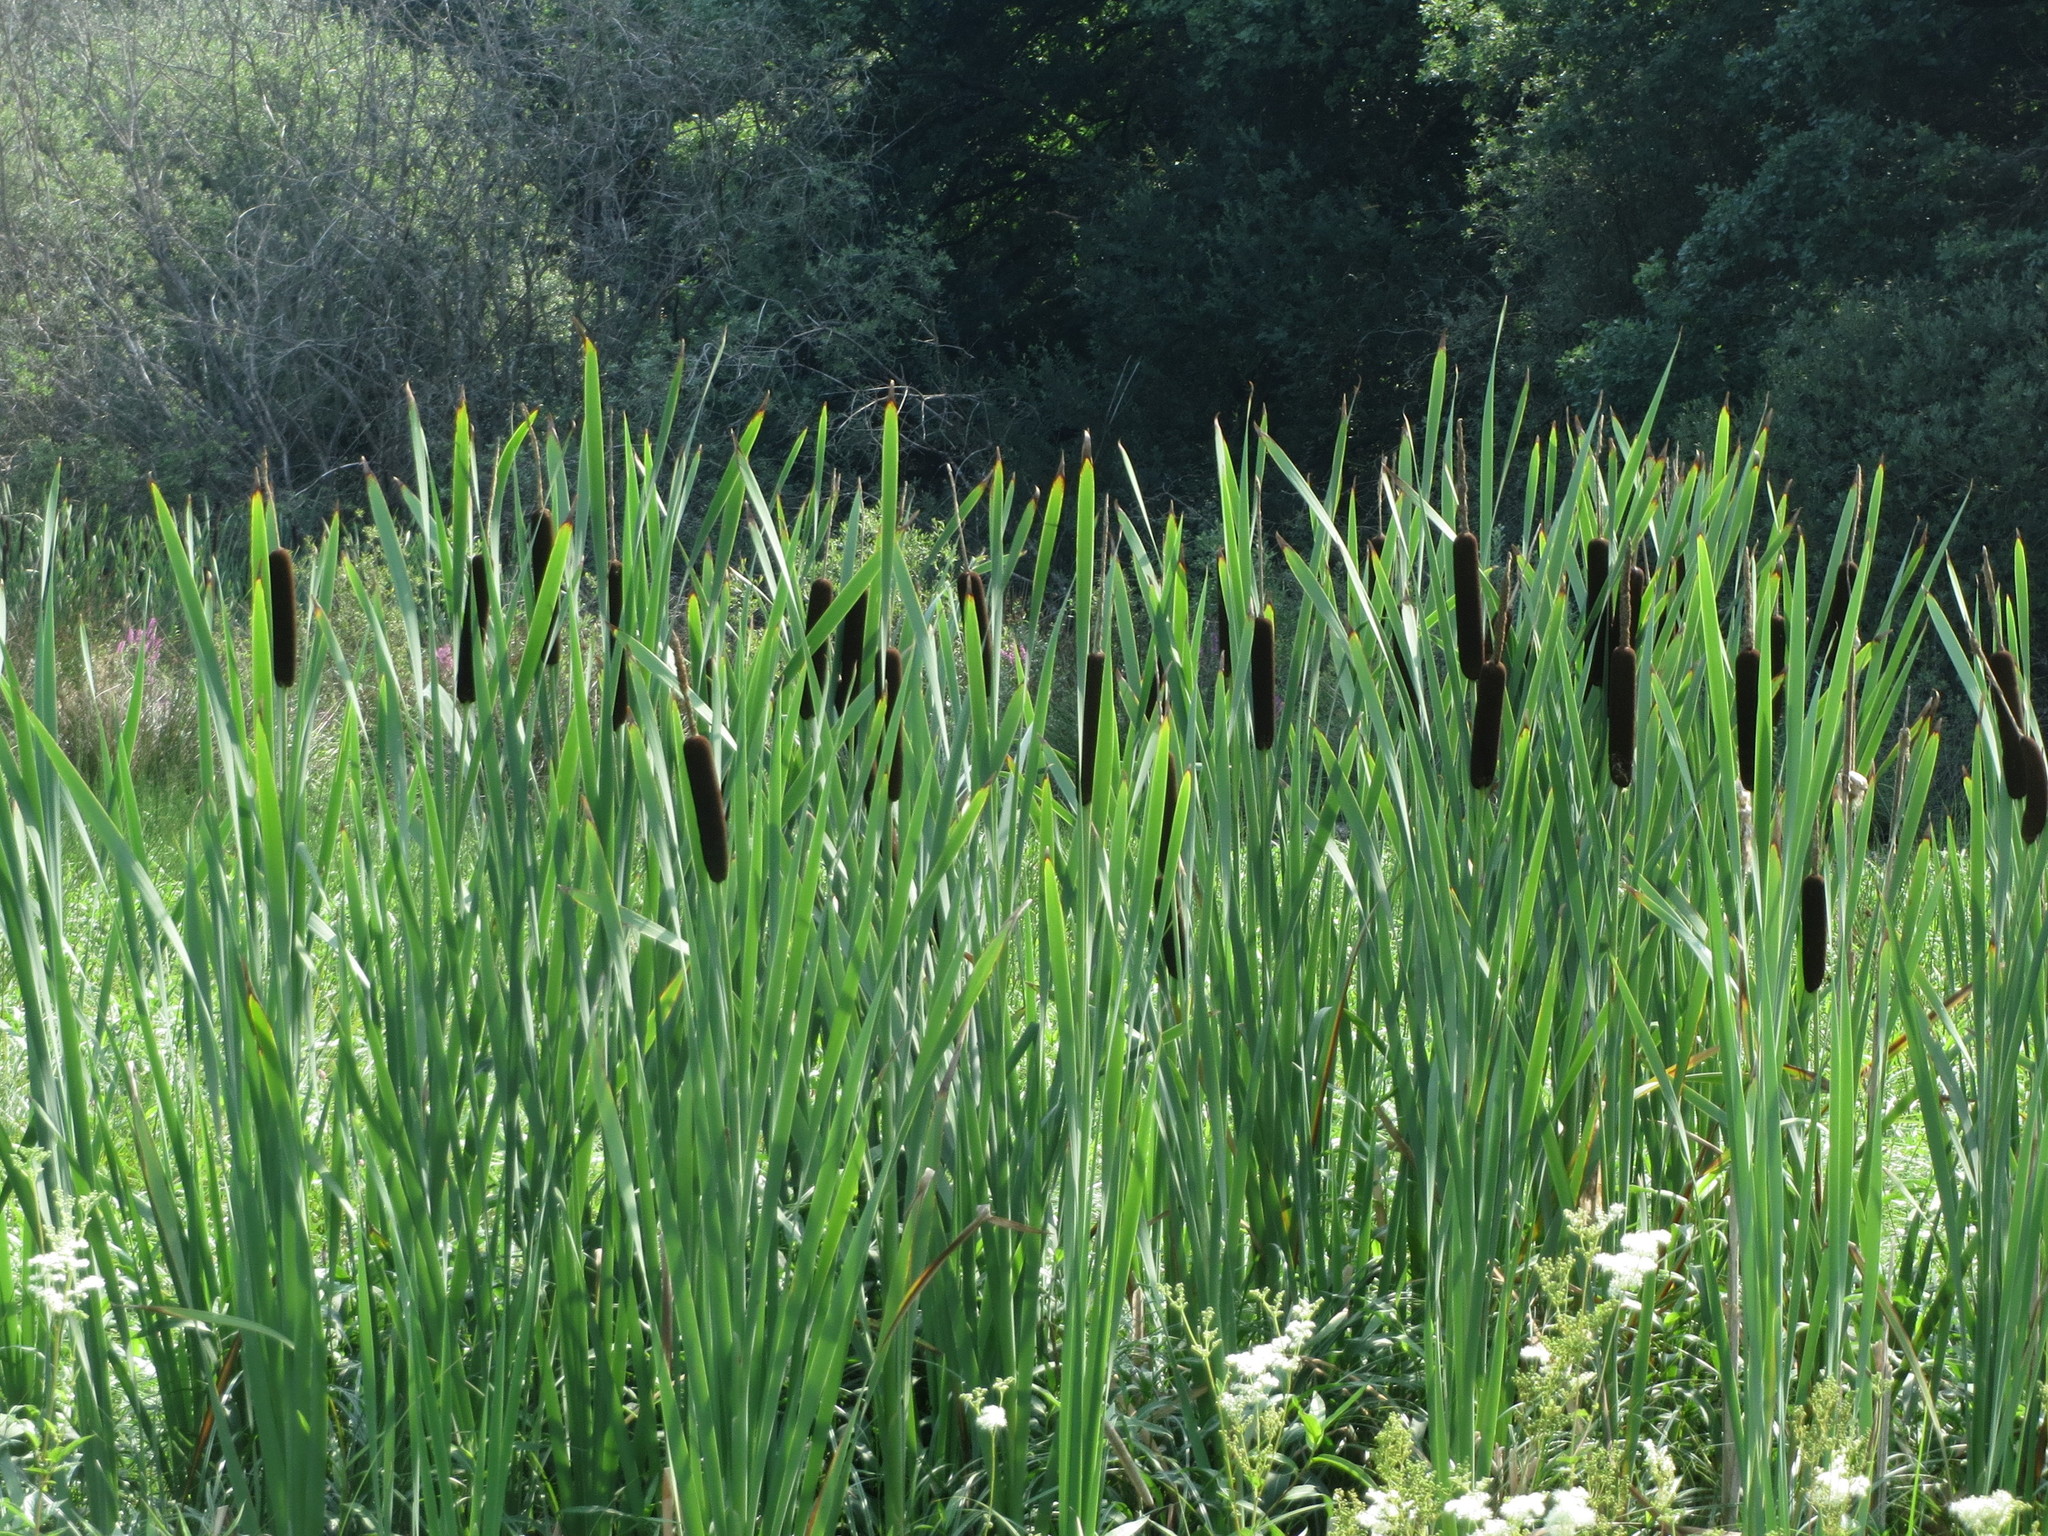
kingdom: Plantae
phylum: Tracheophyta
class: Liliopsida
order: Poales
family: Typhaceae
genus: Typha
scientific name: Typha latifolia
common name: Broadleaf cattail
